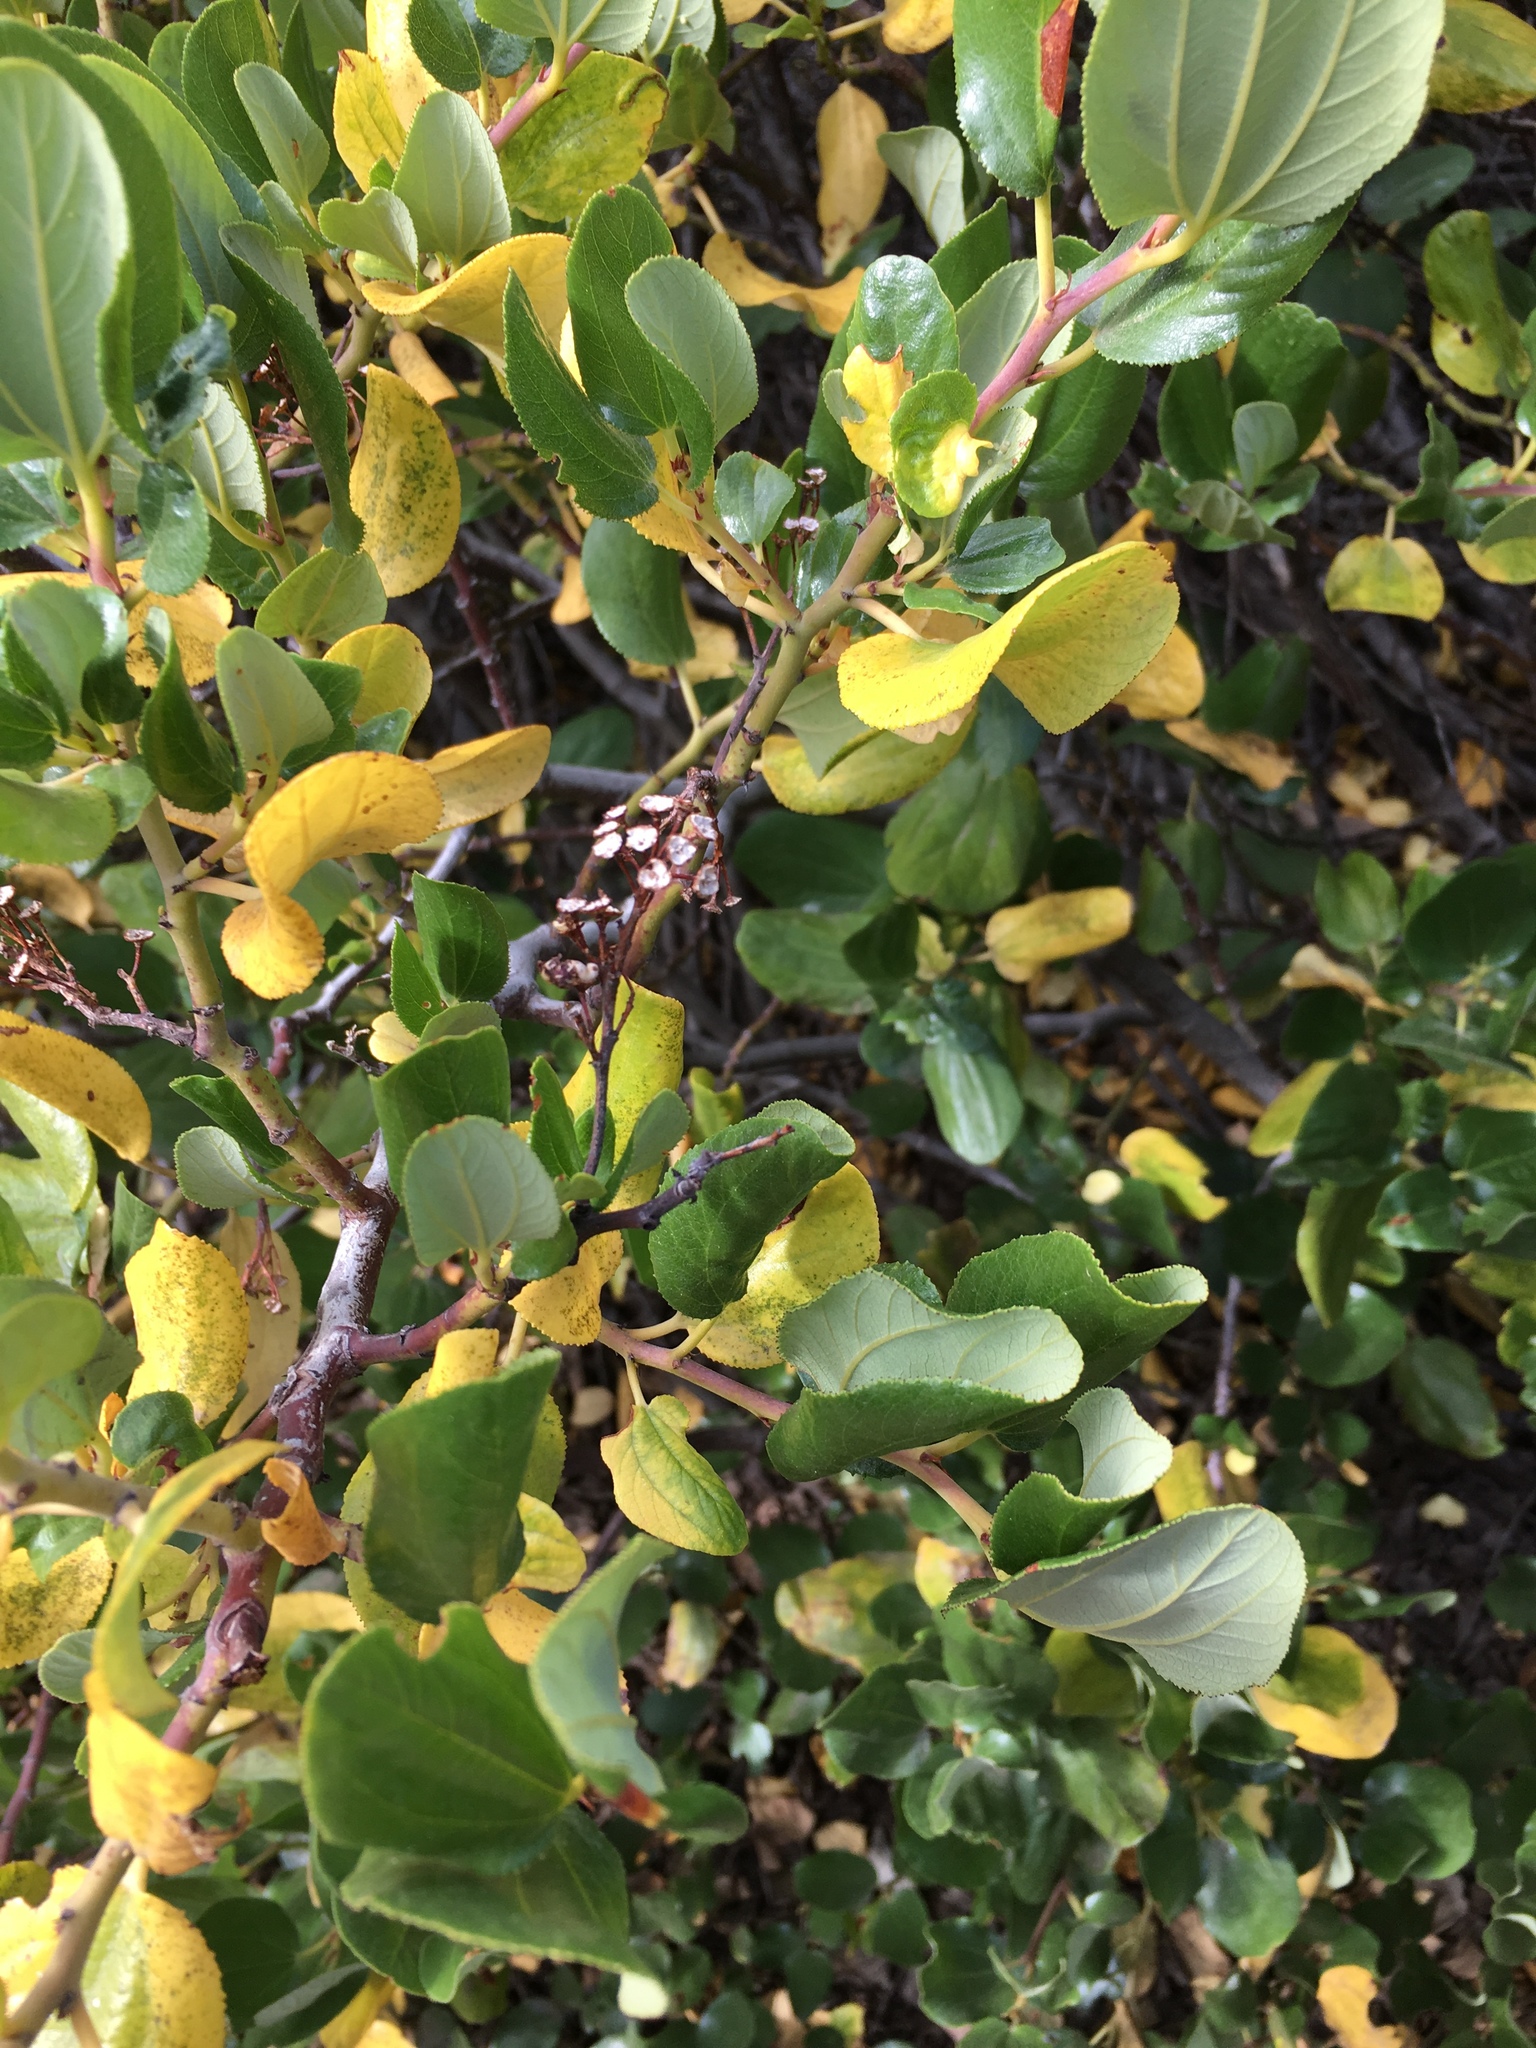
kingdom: Plantae
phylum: Tracheophyta
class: Magnoliopsida
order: Rosales
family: Rhamnaceae
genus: Ceanothus
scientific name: Ceanothus velutinus
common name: Snowbrush
